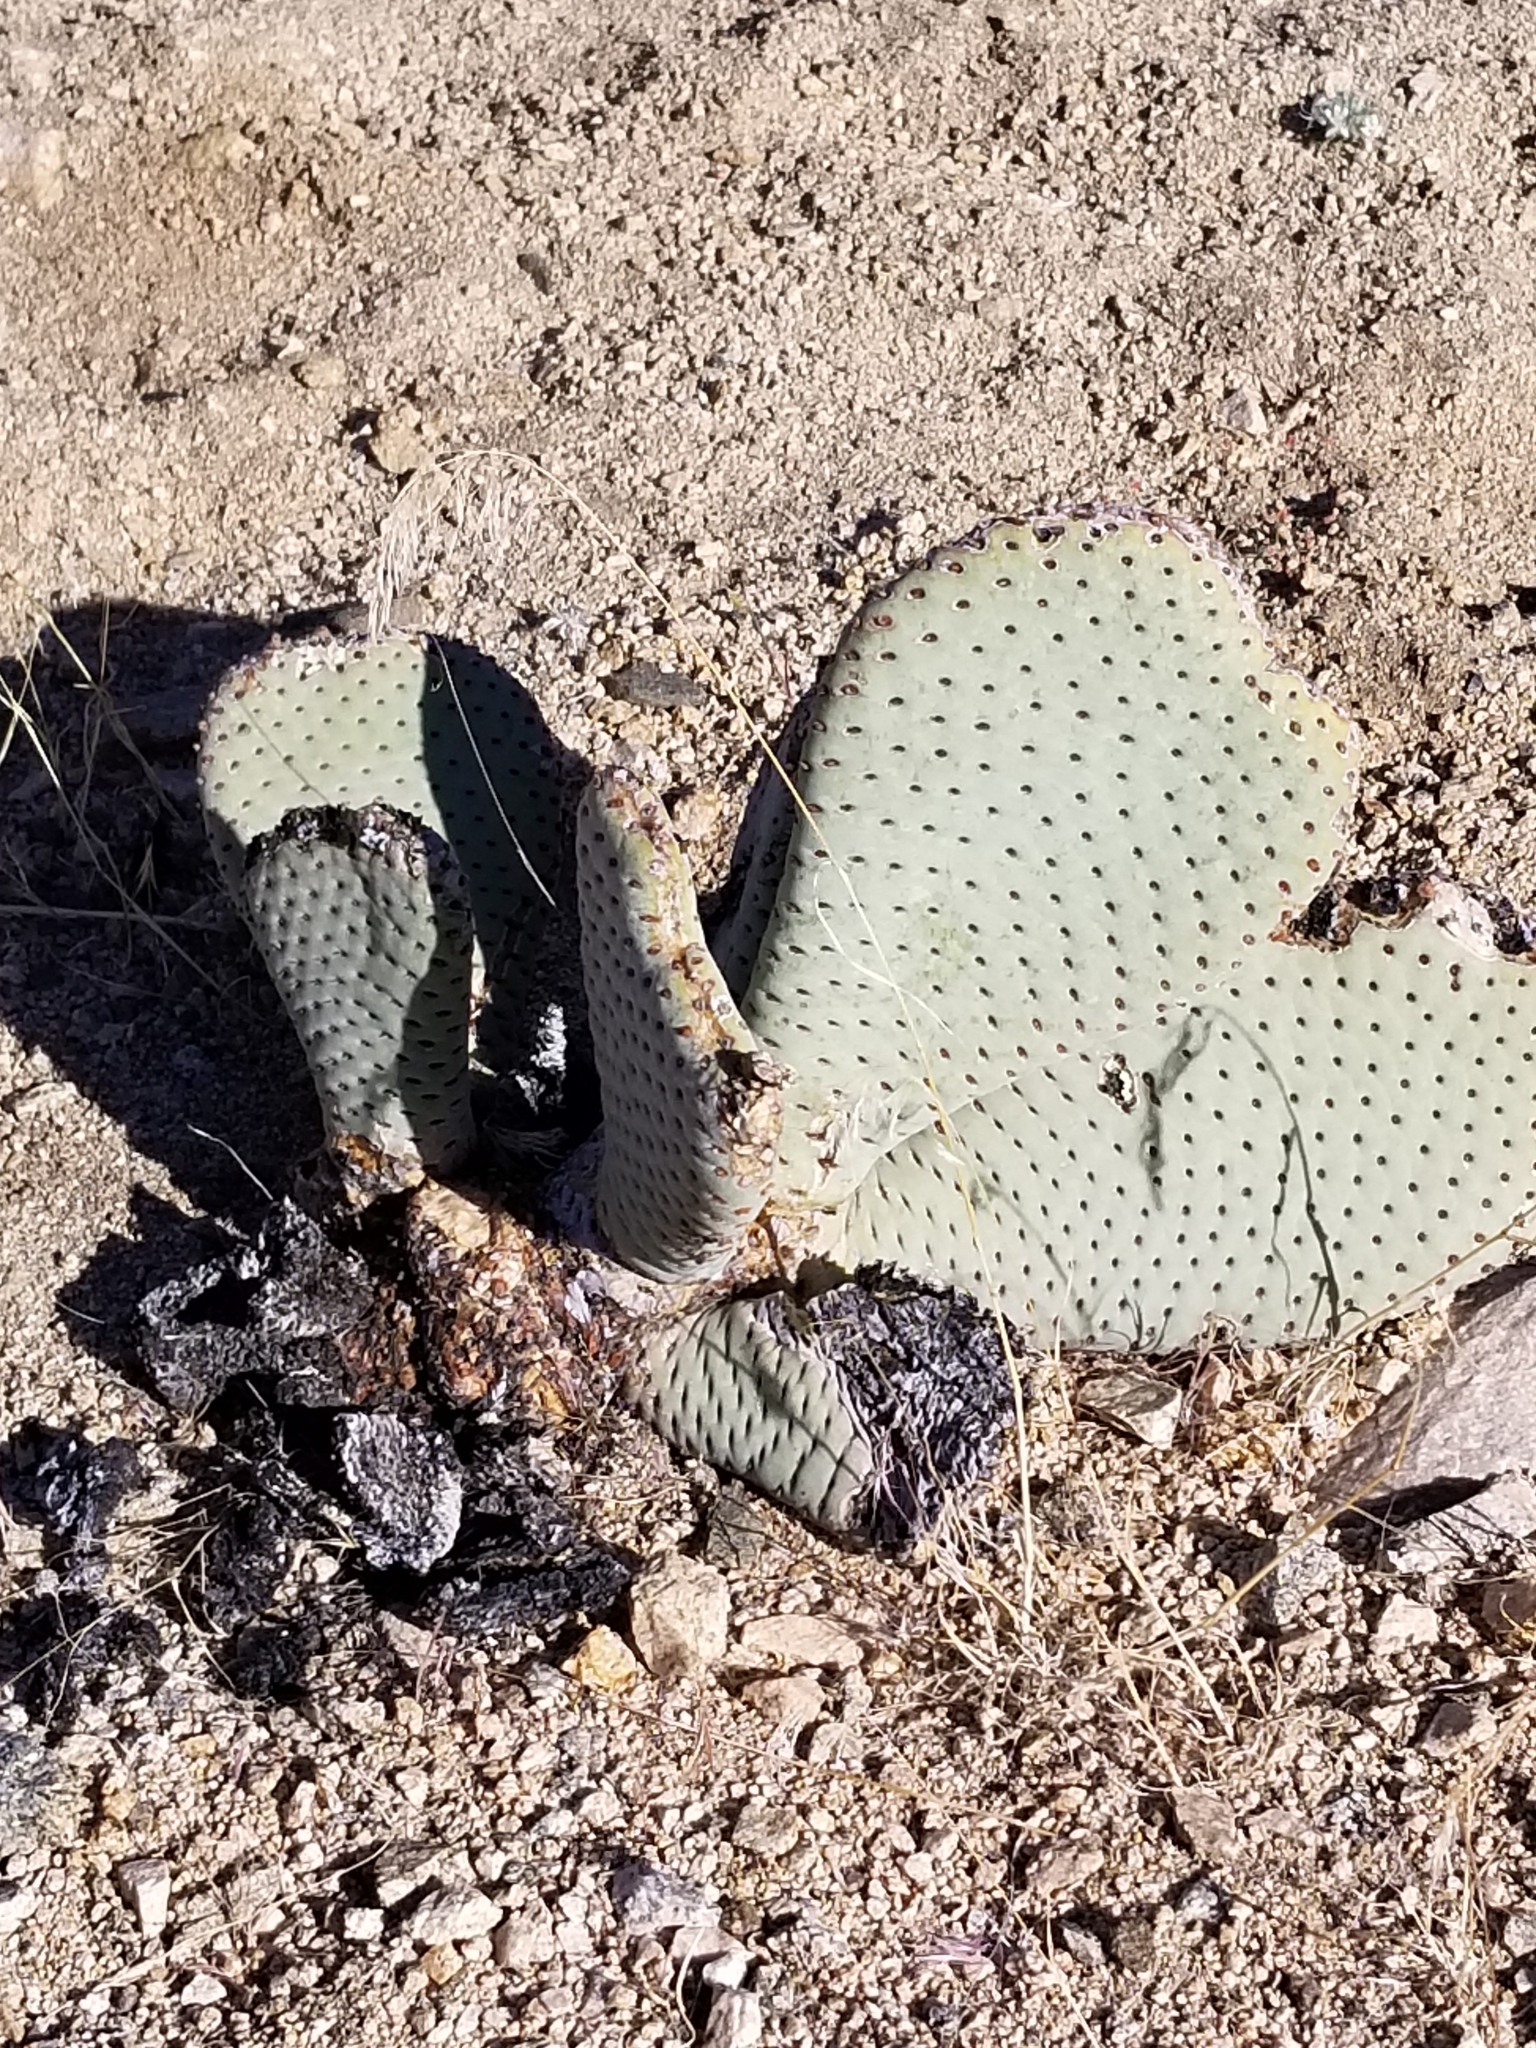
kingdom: Plantae
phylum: Tracheophyta
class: Magnoliopsida
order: Caryophyllales
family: Cactaceae
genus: Opuntia
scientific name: Opuntia basilaris
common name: Beavertail prickly-pear
